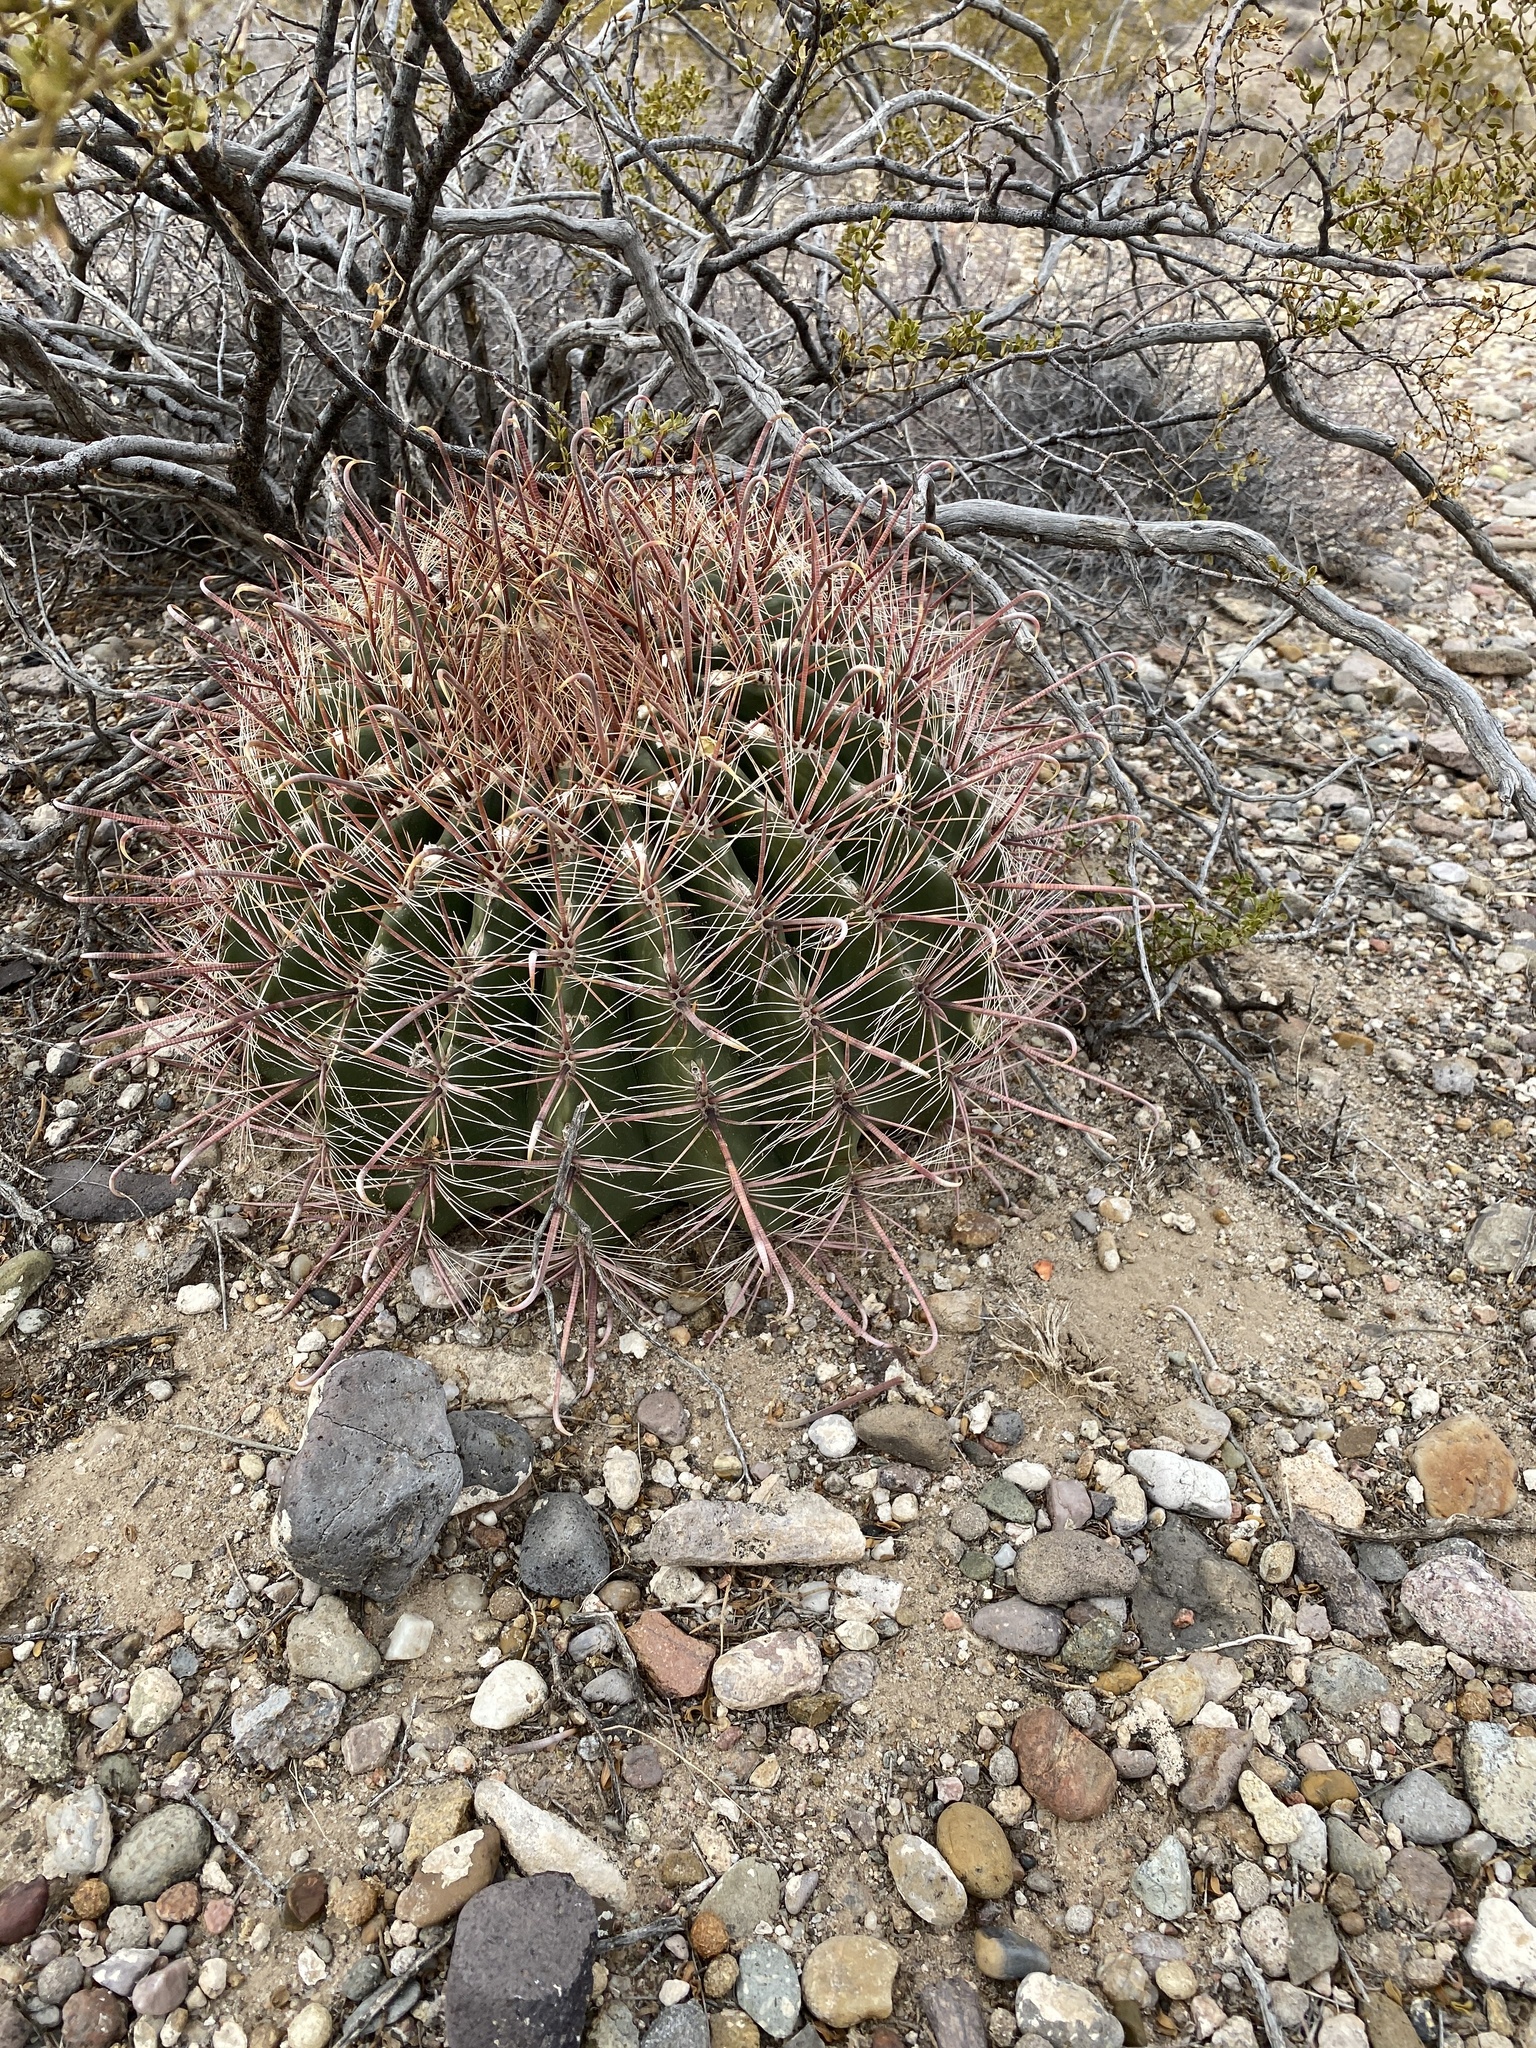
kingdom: Plantae
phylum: Tracheophyta
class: Magnoliopsida
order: Caryophyllales
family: Cactaceae
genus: Ferocactus
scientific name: Ferocactus wislizeni
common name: Candy barrel cactus
